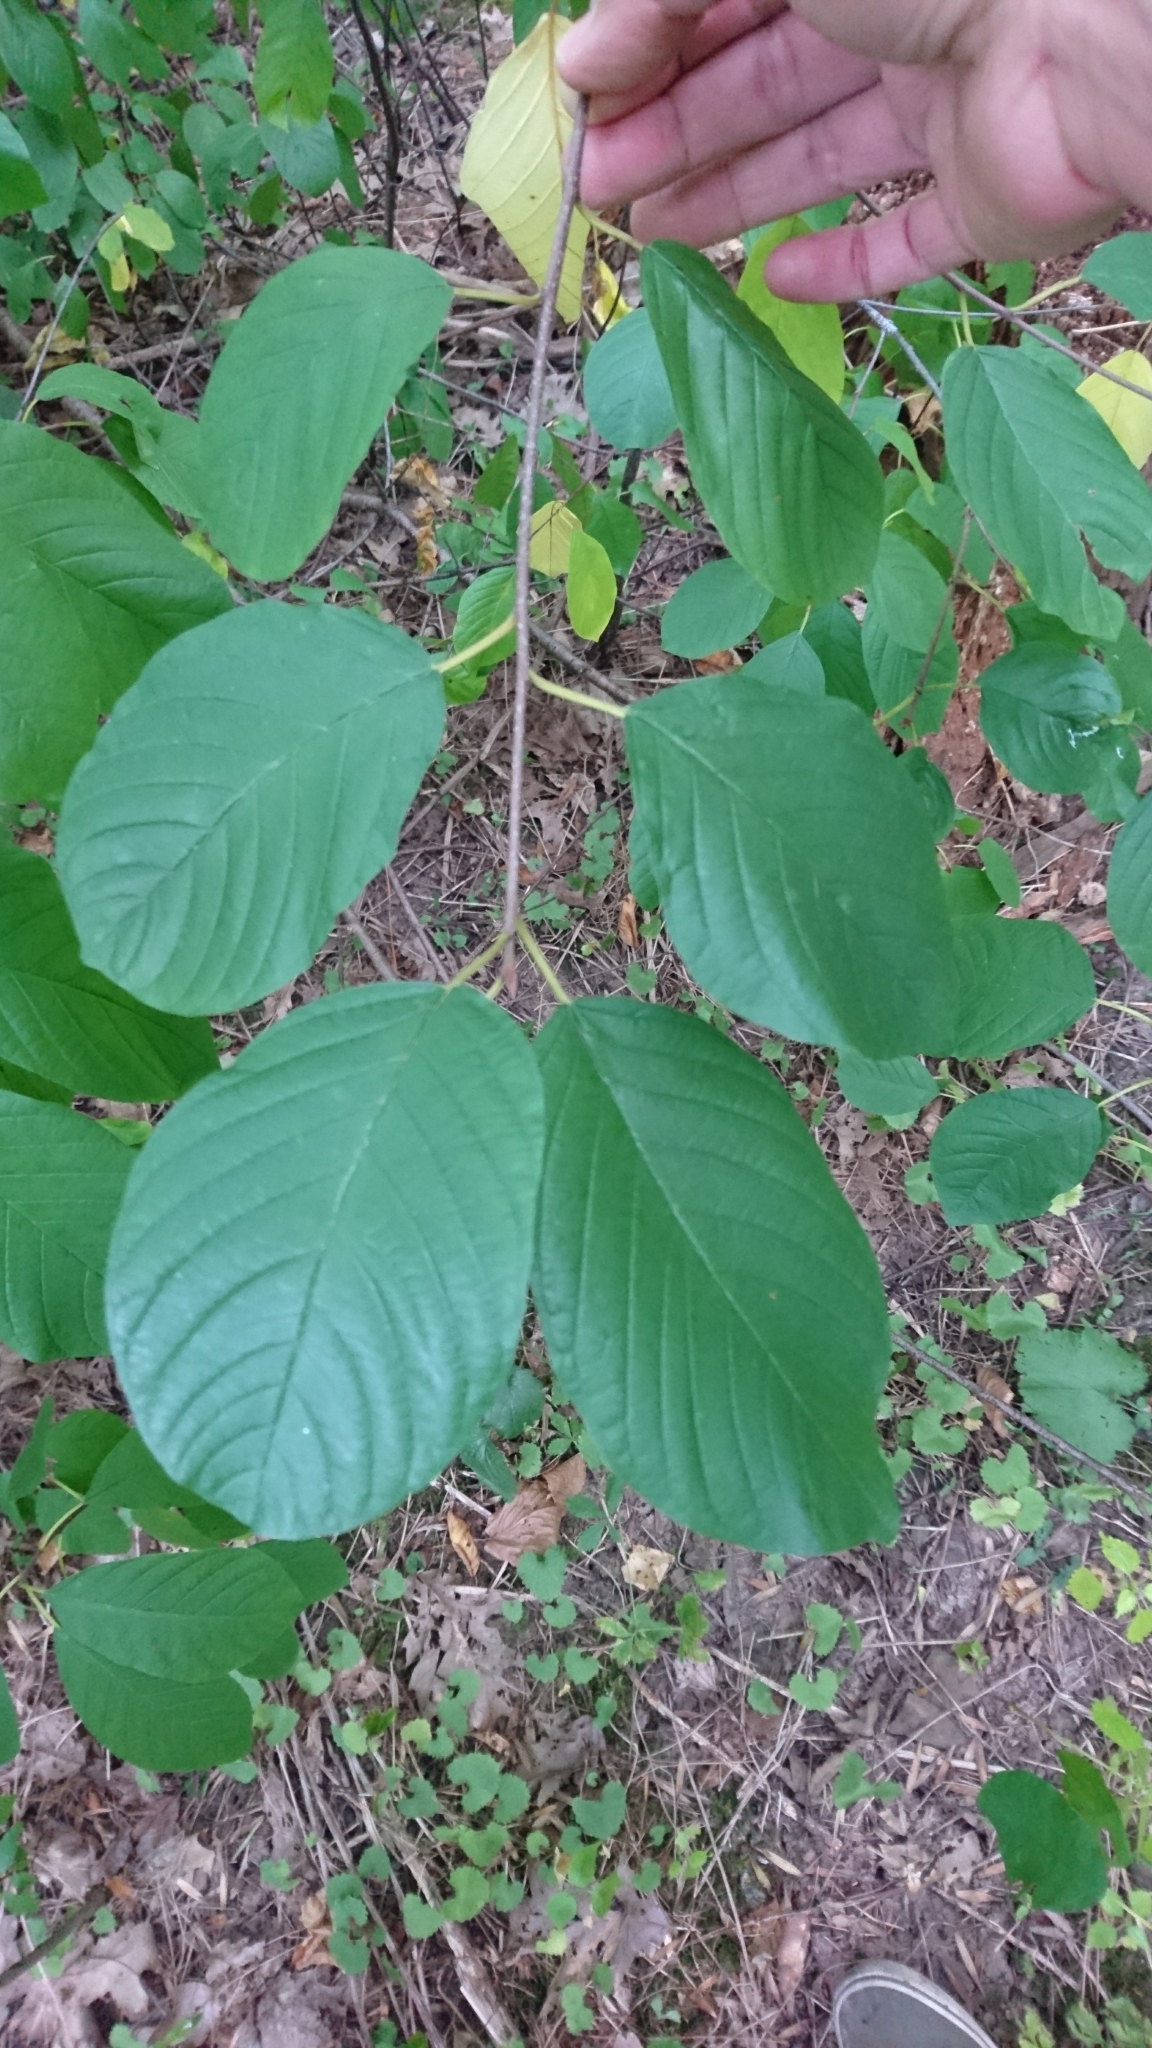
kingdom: Plantae
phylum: Tracheophyta
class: Magnoliopsida
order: Rosales
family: Rhamnaceae
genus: Frangula
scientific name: Frangula alnus
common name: Alder buckthorn
